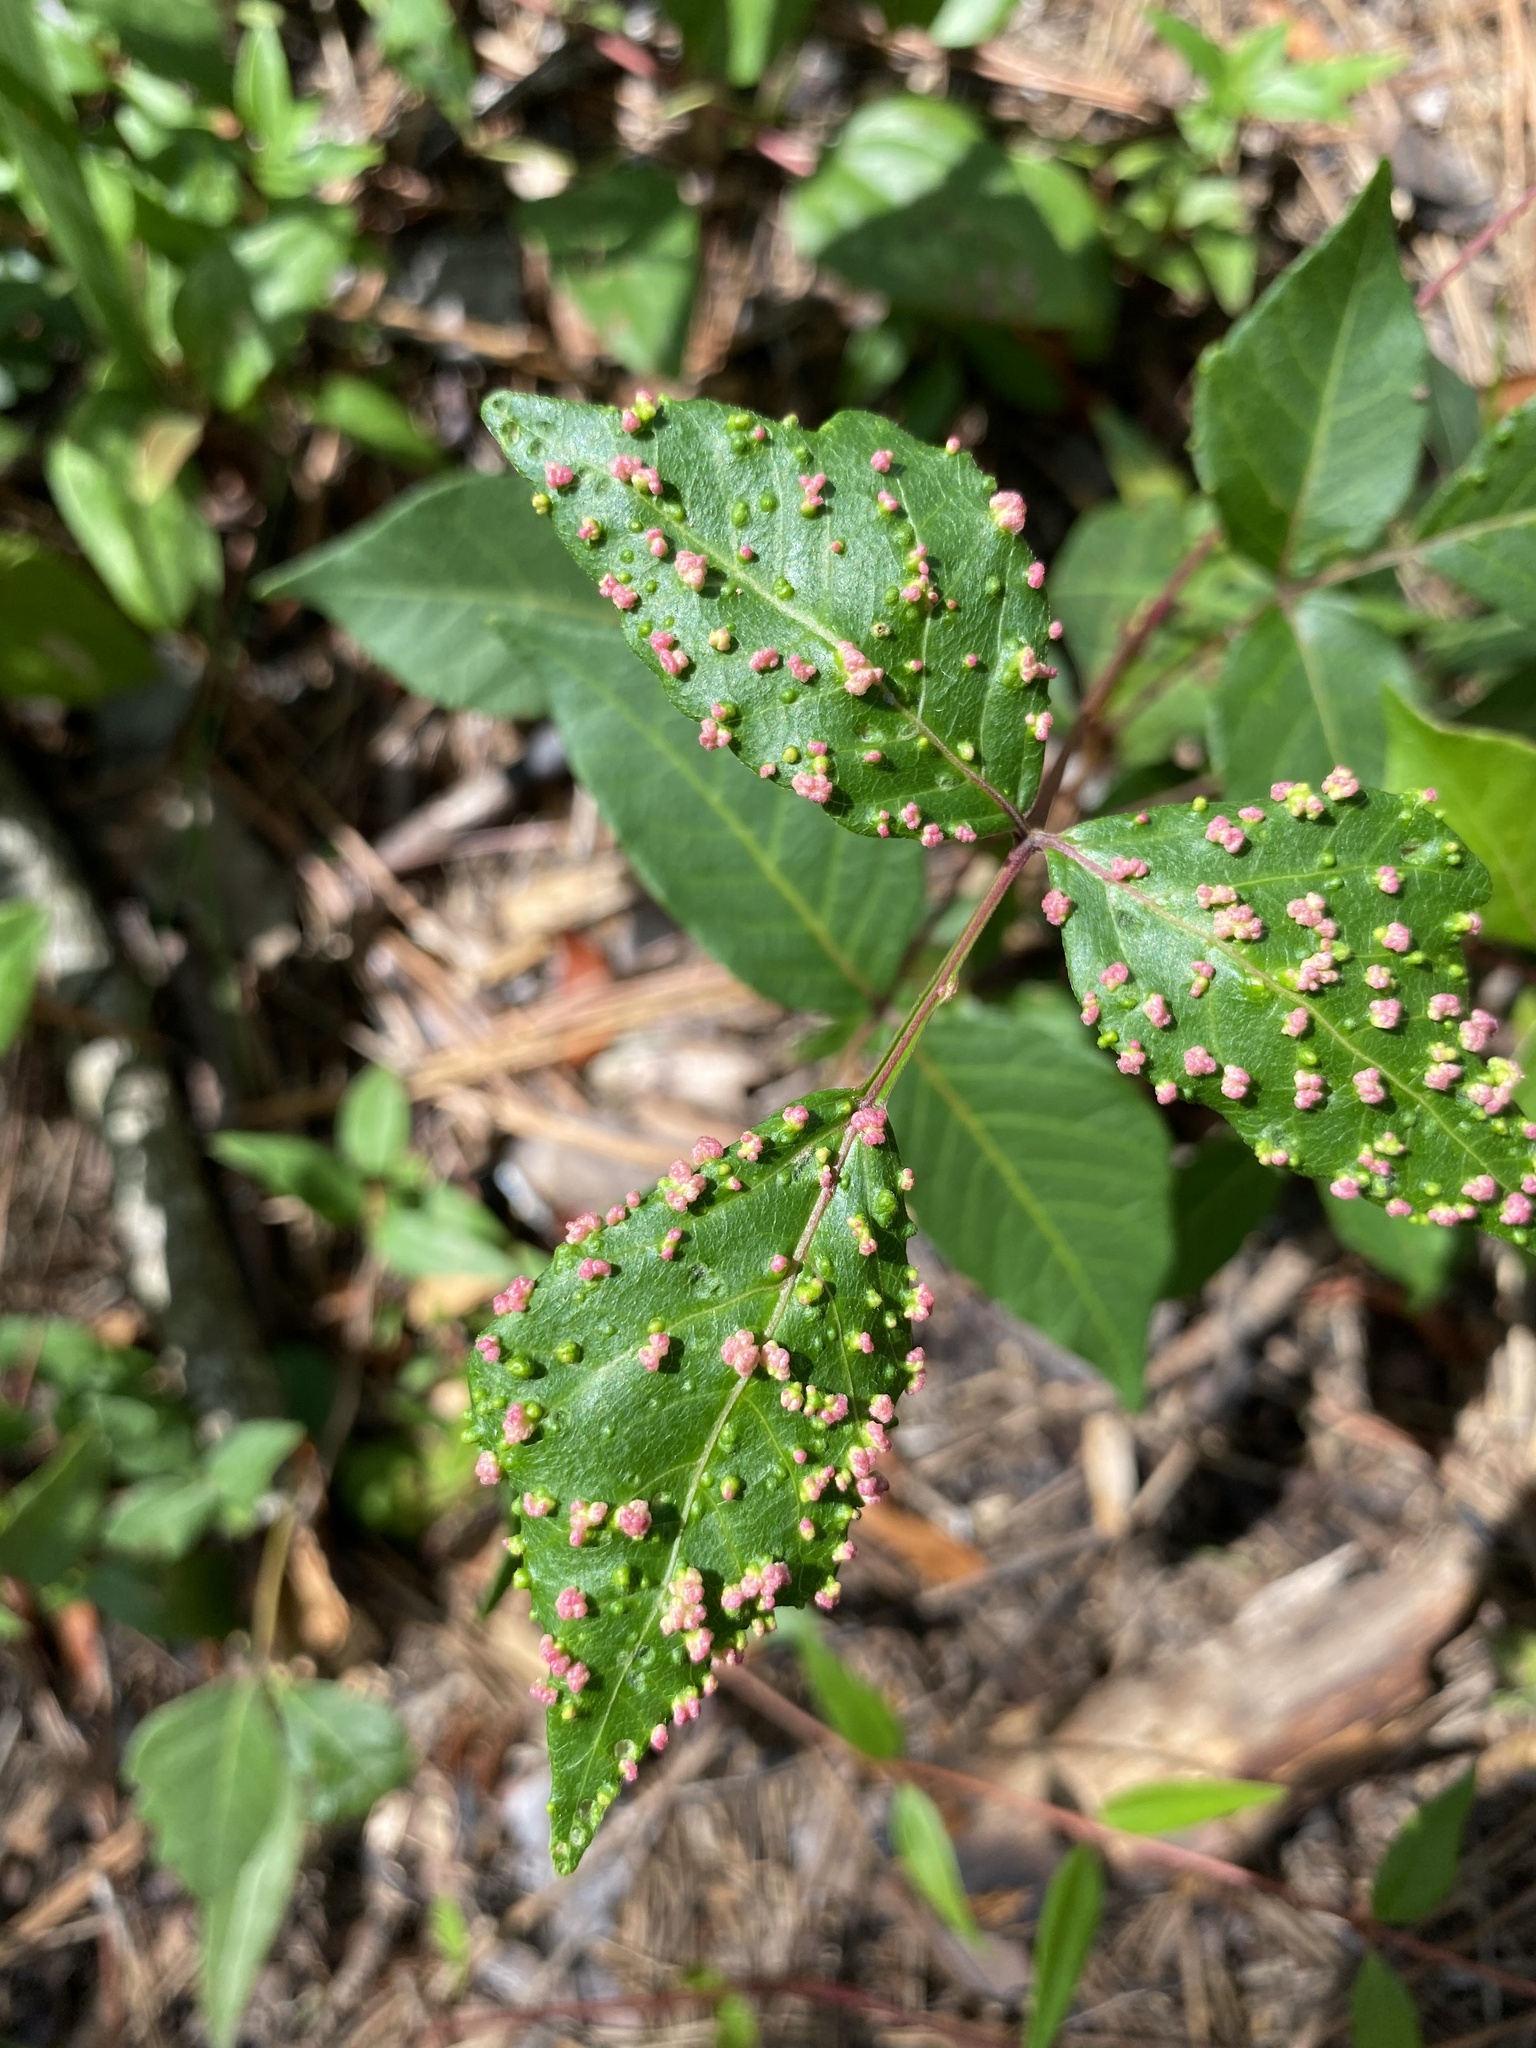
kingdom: Animalia
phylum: Arthropoda
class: Arachnida
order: Trombidiformes
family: Eriophyidae
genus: Aculops
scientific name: Aculops
